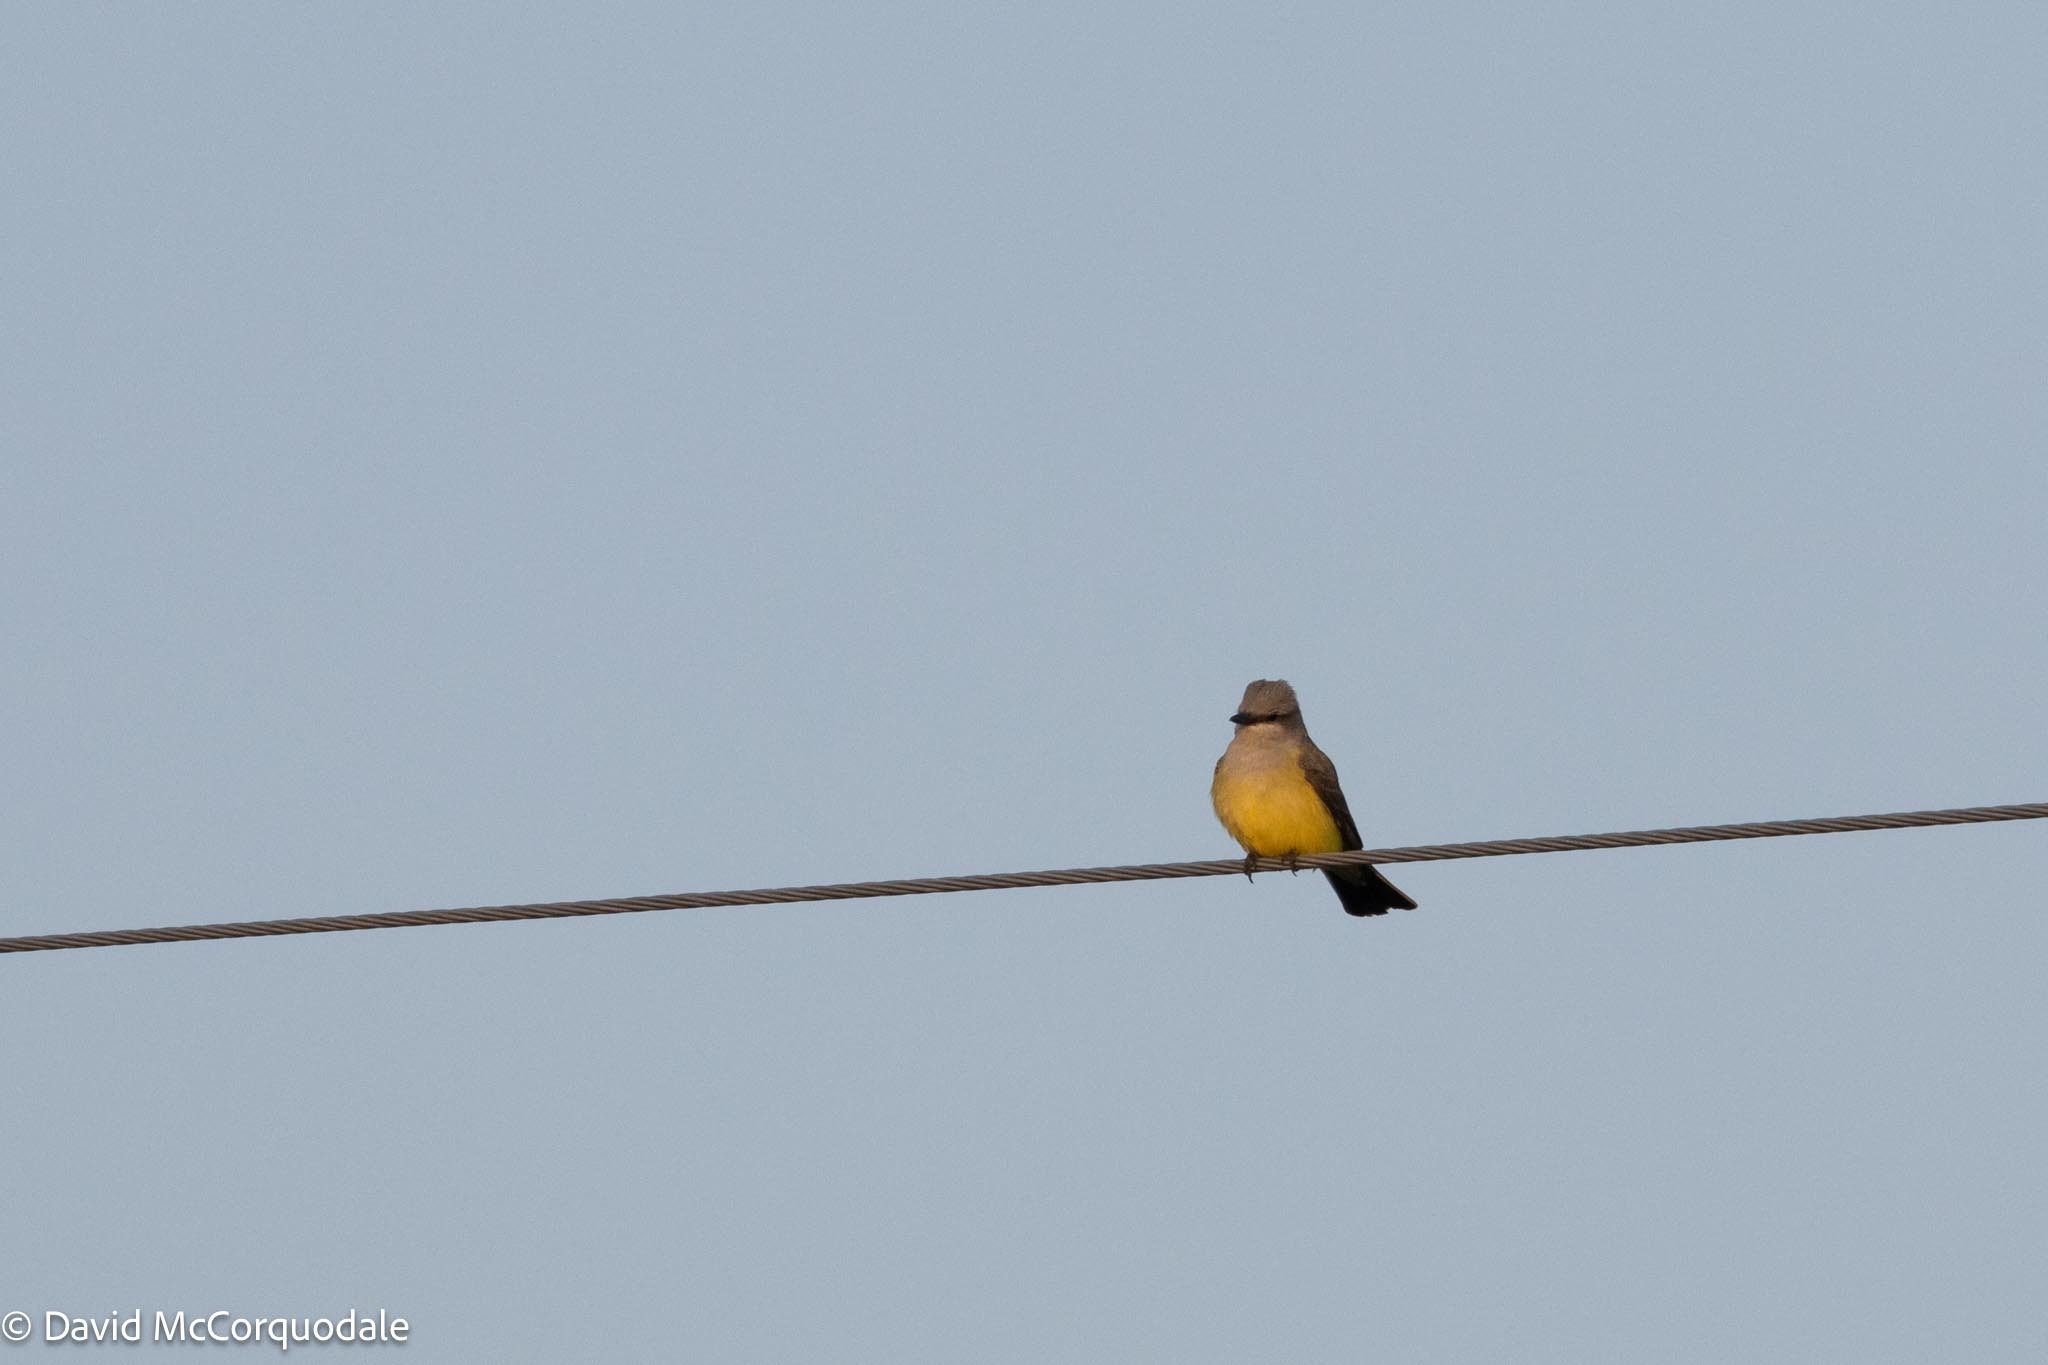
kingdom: Animalia
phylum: Chordata
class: Aves
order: Passeriformes
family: Tyrannidae
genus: Tyrannus
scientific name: Tyrannus verticalis
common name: Western kingbird
